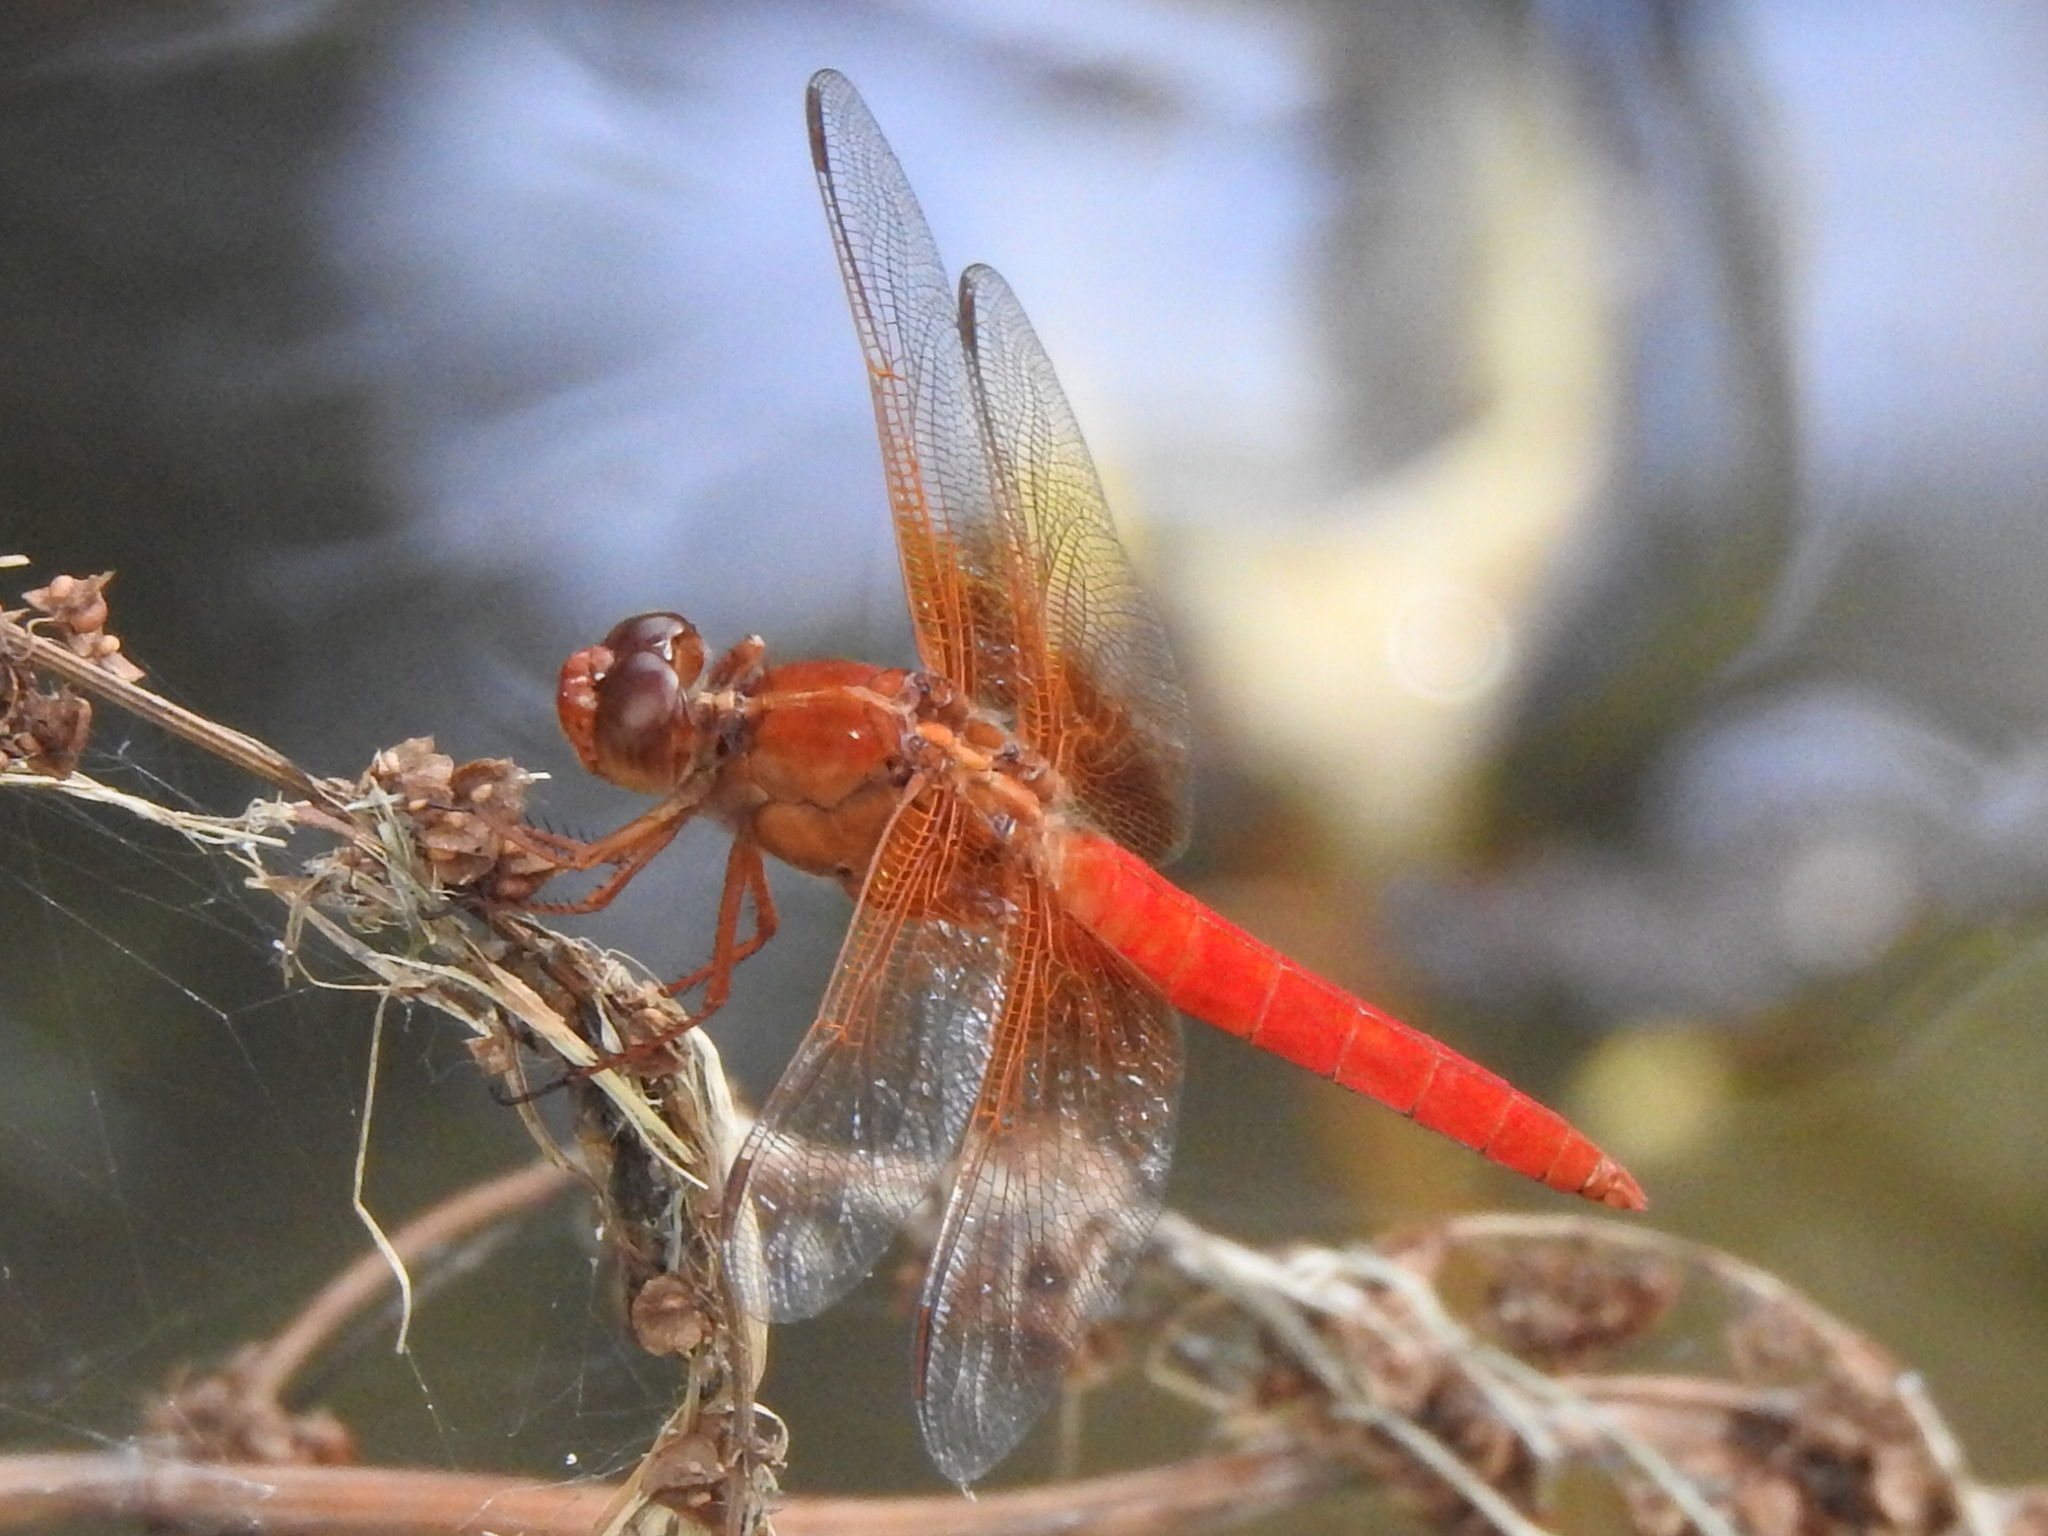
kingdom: Animalia
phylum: Arthropoda
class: Insecta
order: Odonata
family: Libellulidae
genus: Libellula
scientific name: Libellula croceipennis
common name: Neon skimmer
